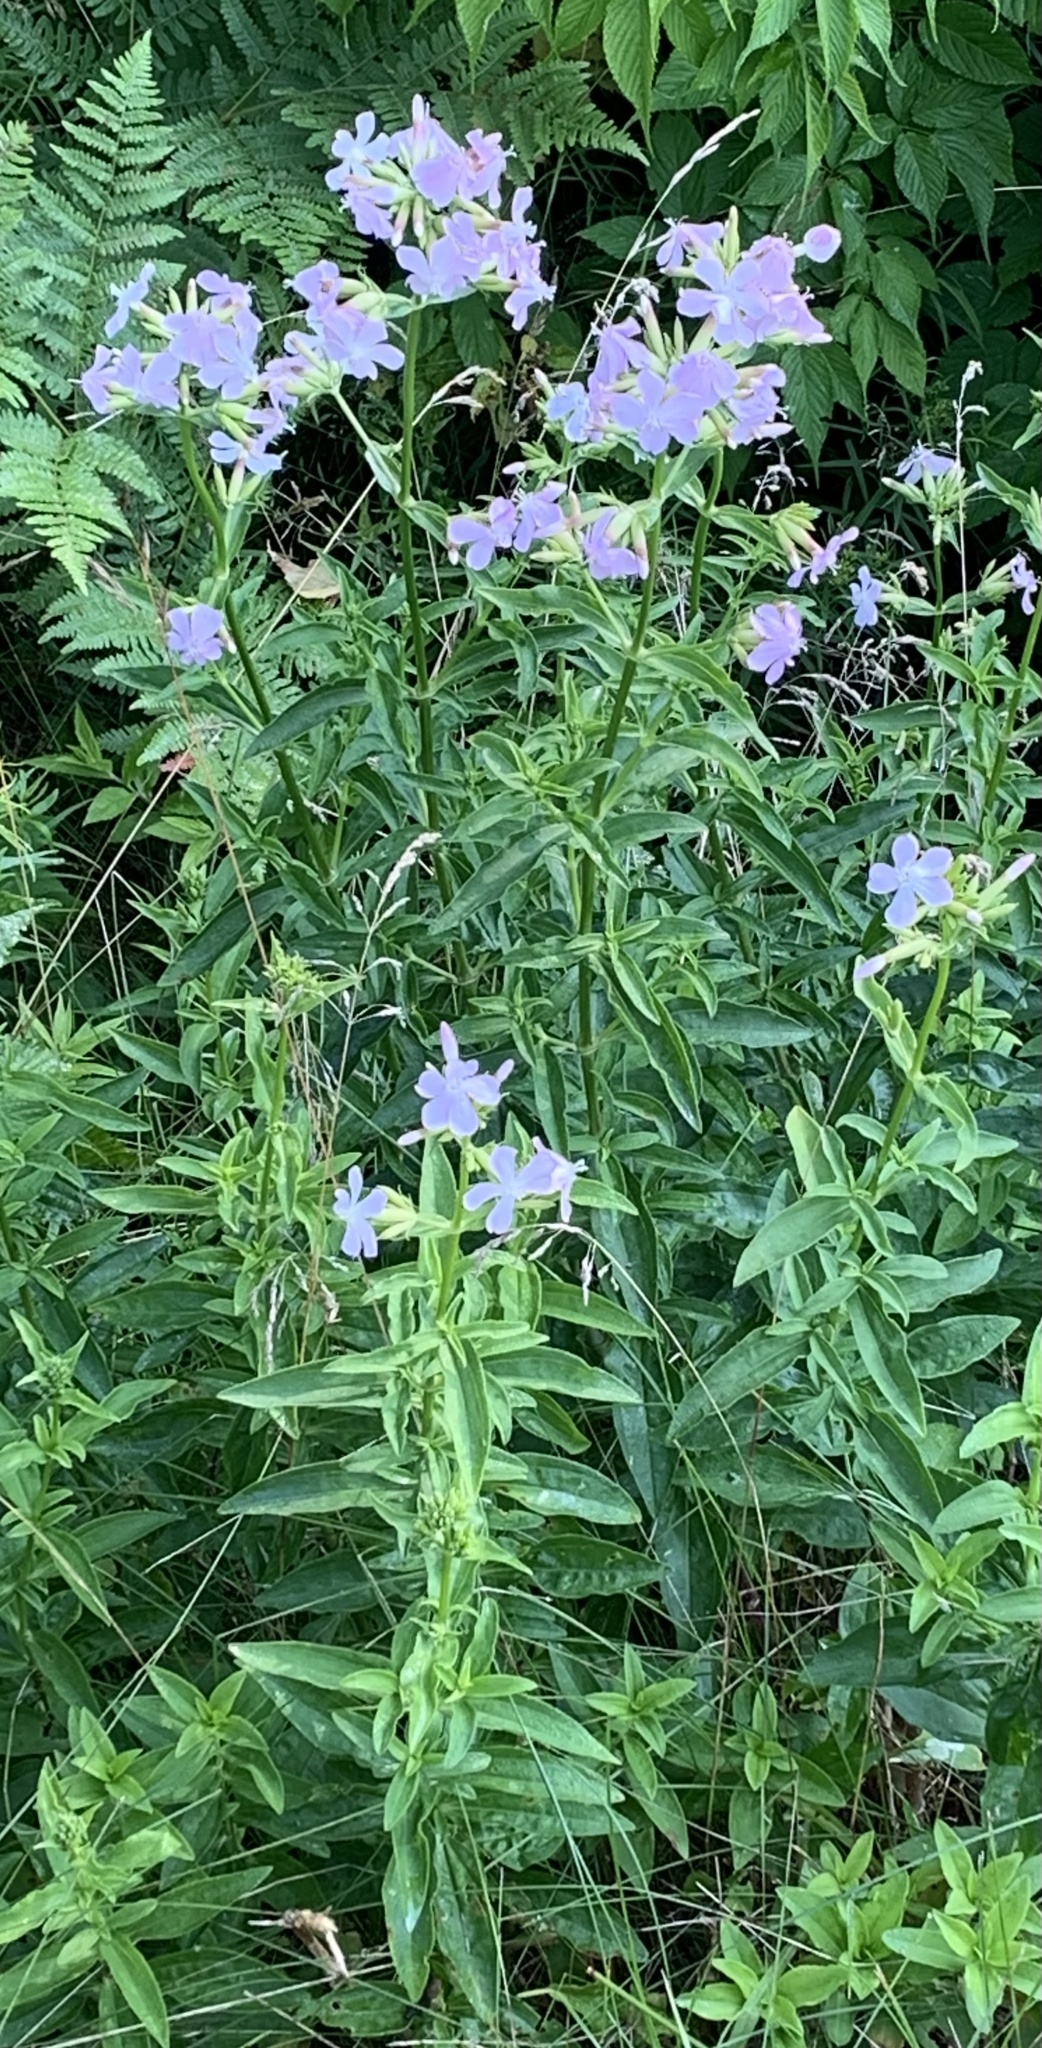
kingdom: Plantae
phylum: Tracheophyta
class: Magnoliopsida
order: Caryophyllales
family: Caryophyllaceae
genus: Saponaria
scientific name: Saponaria officinalis
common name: Soapwort
